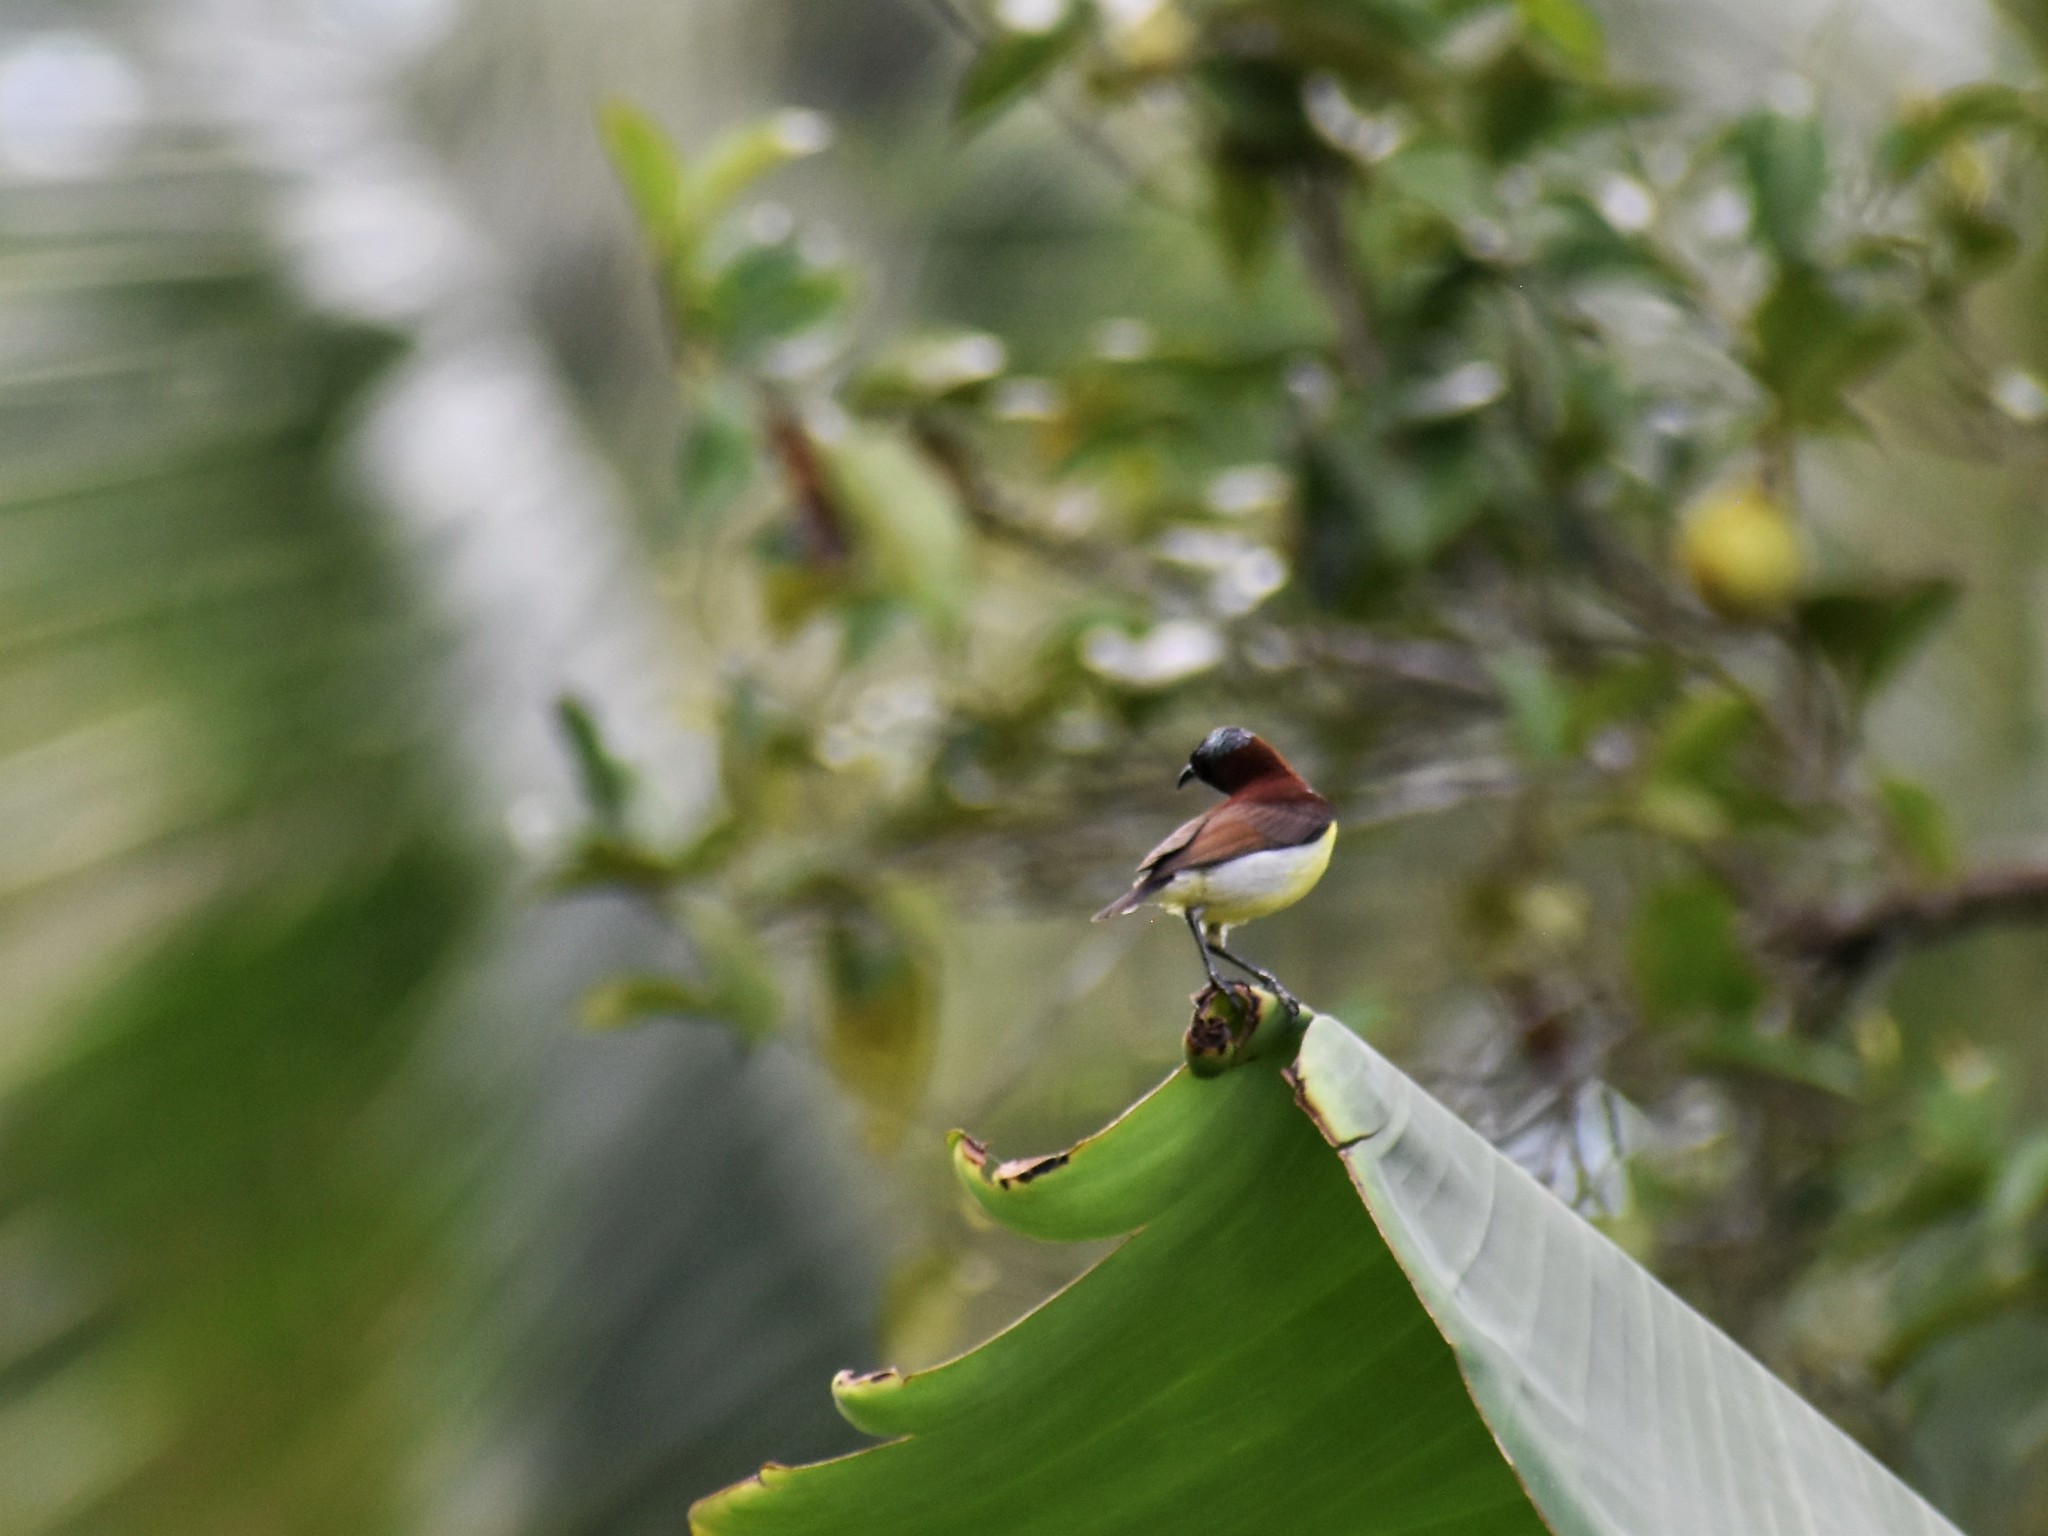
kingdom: Animalia
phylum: Chordata
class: Aves
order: Passeriformes
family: Nectariniidae
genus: Leptocoma
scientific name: Leptocoma zeylonica
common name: Purple-rumped sunbird
